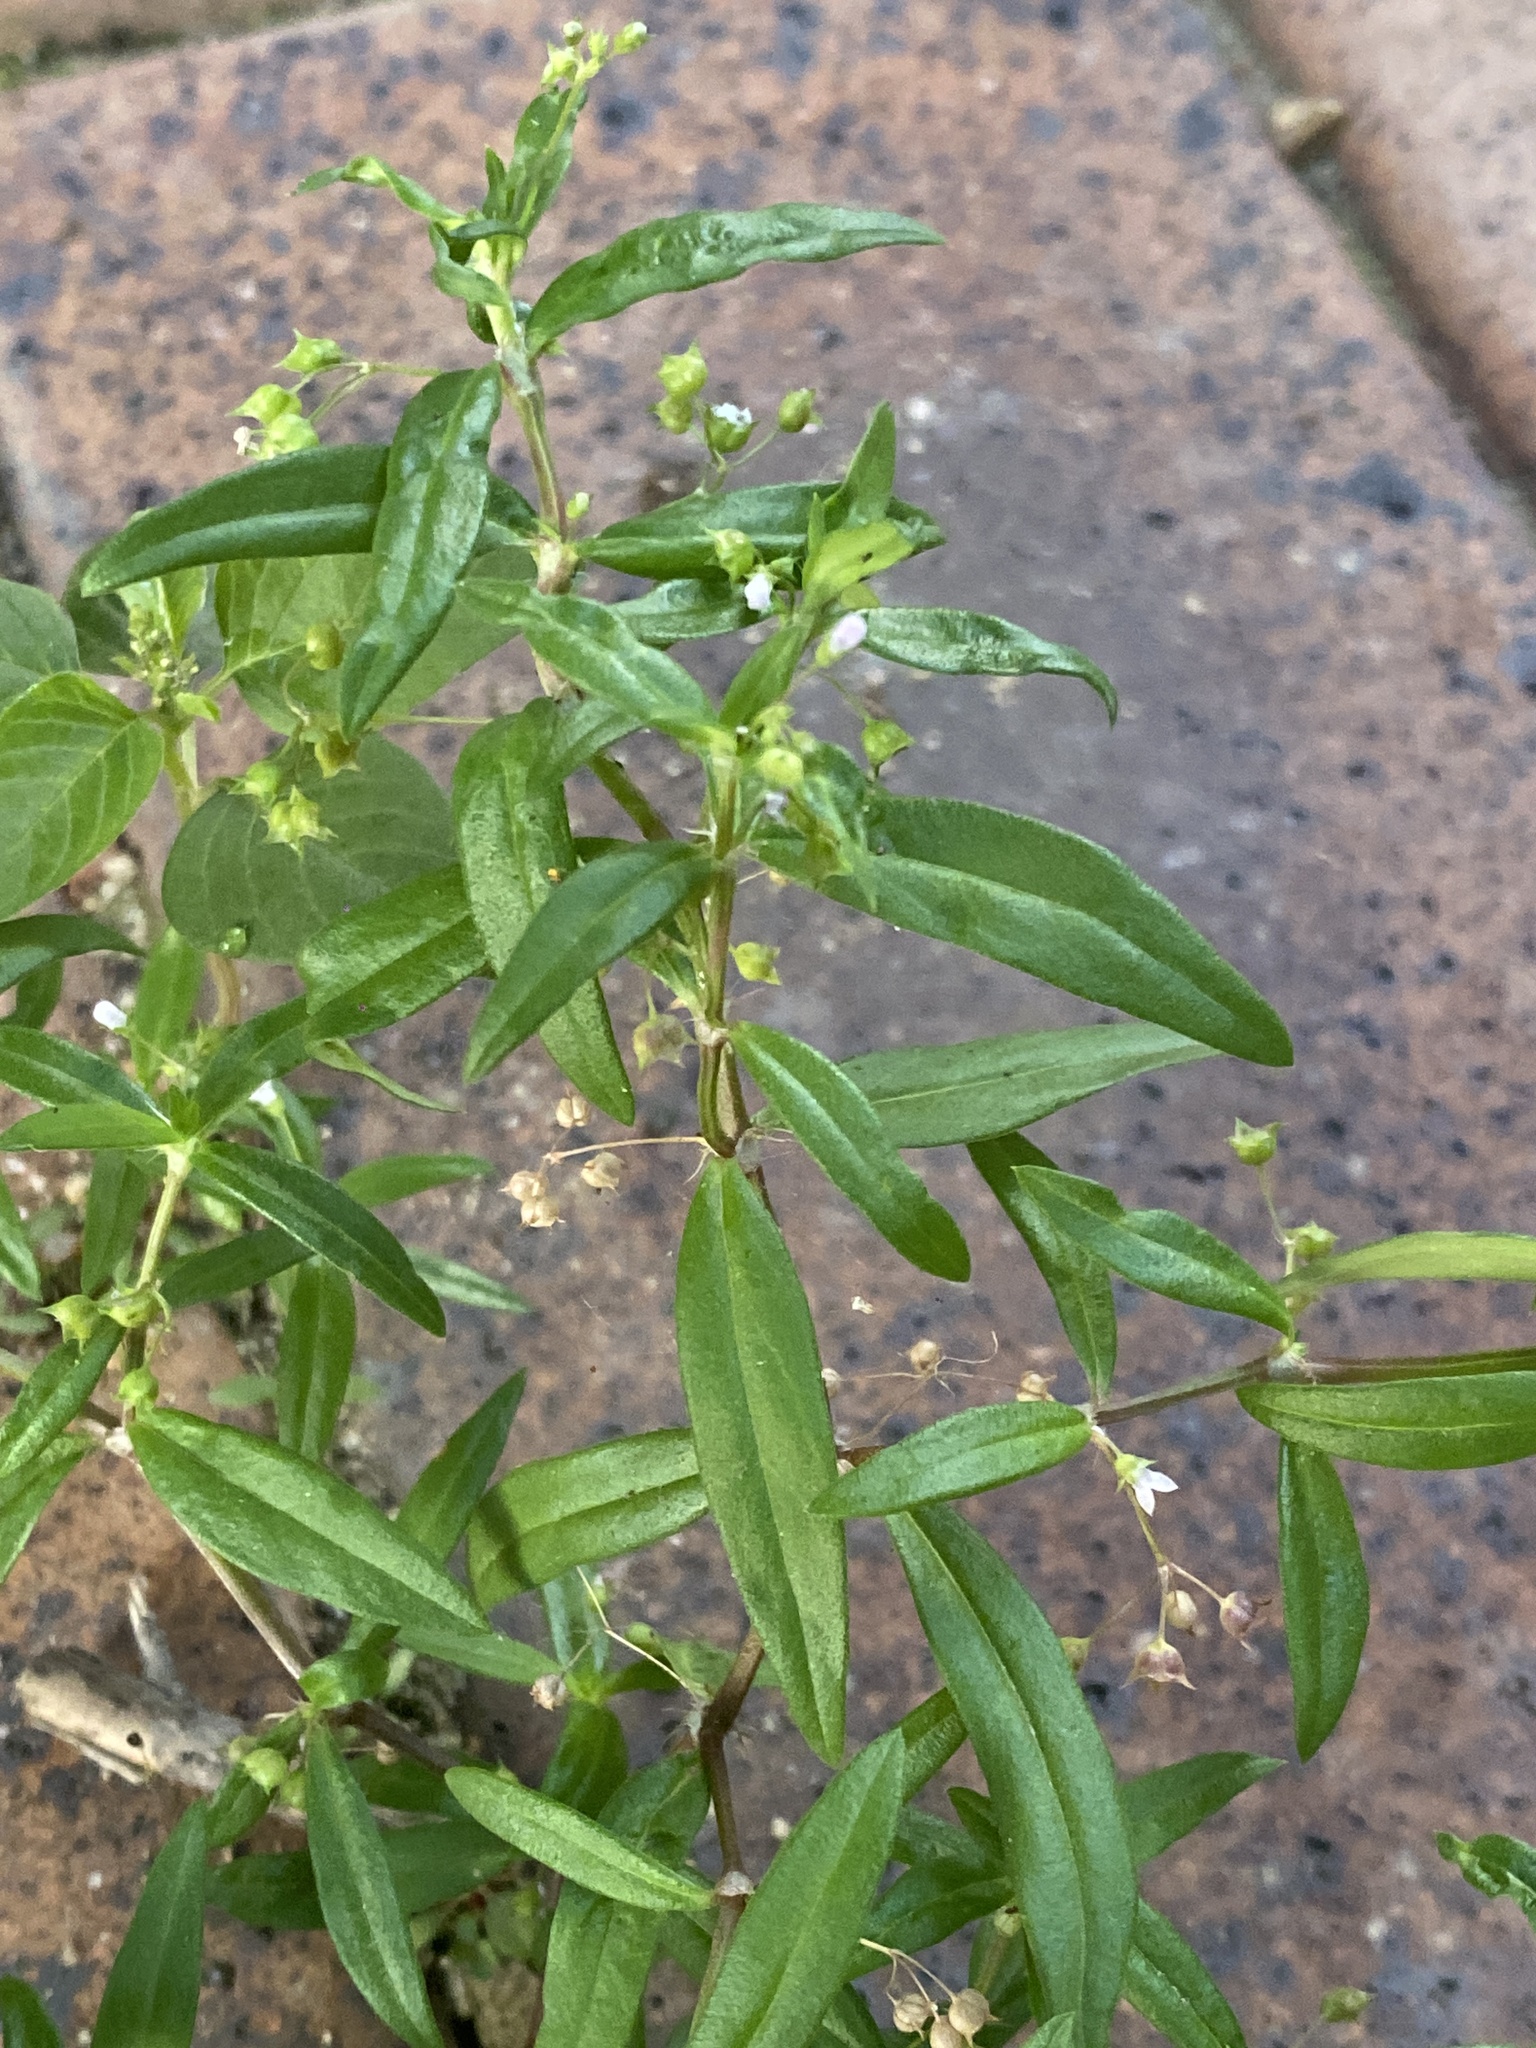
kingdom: Plantae
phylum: Tracheophyta
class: Magnoliopsida
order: Gentianales
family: Rubiaceae
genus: Oldenlandia
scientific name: Oldenlandia corymbosa
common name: Flat-top mille graines
